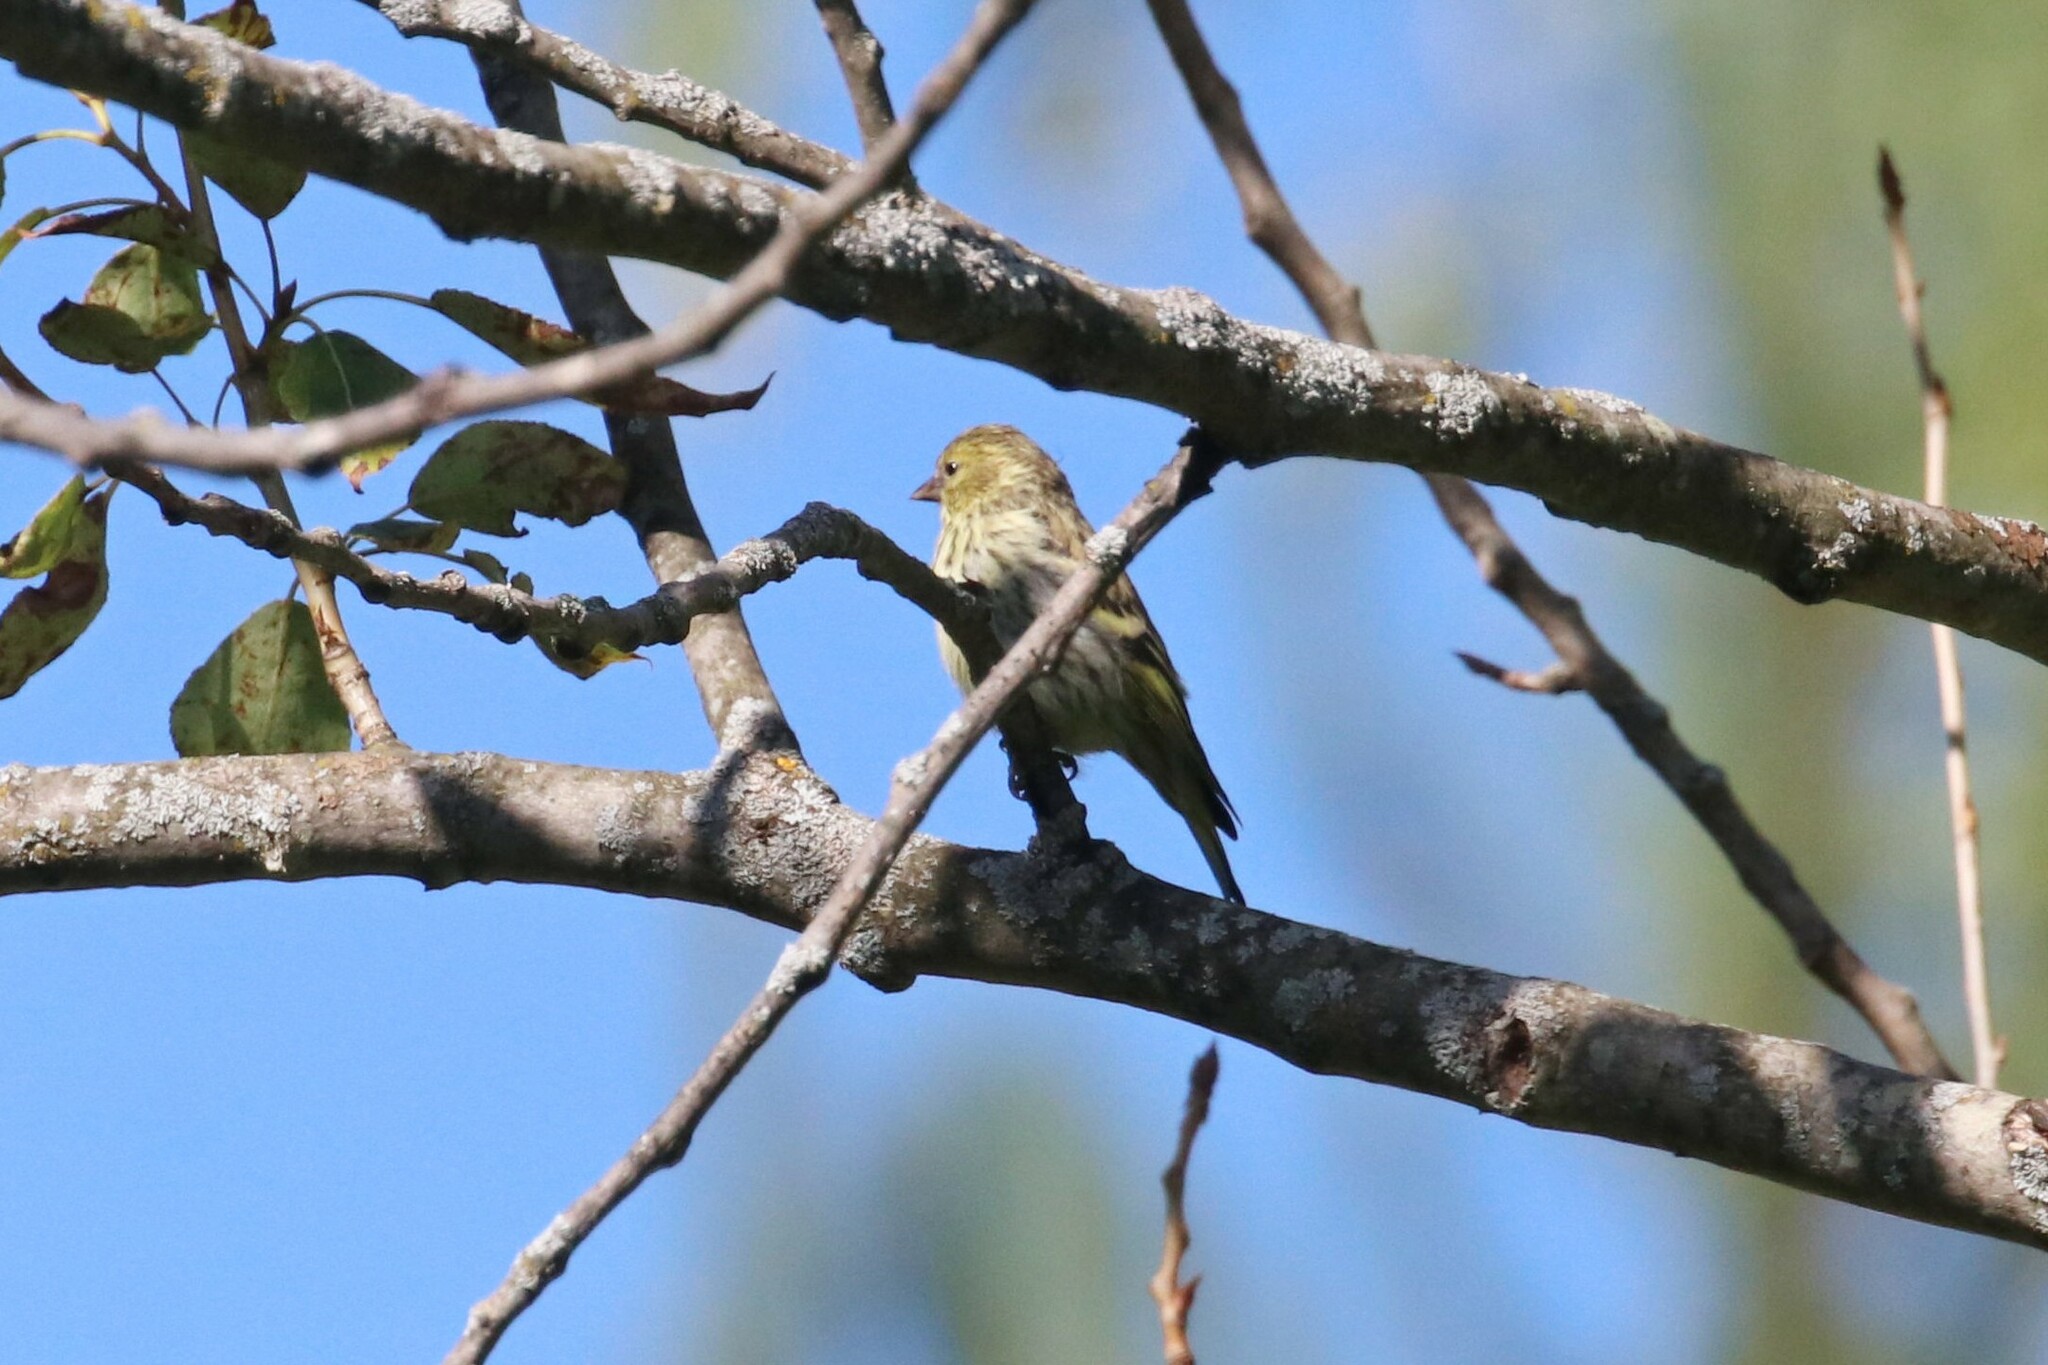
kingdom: Animalia
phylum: Chordata
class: Aves
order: Passeriformes
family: Fringillidae
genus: Spinus
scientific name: Spinus spinus
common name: Eurasian siskin
